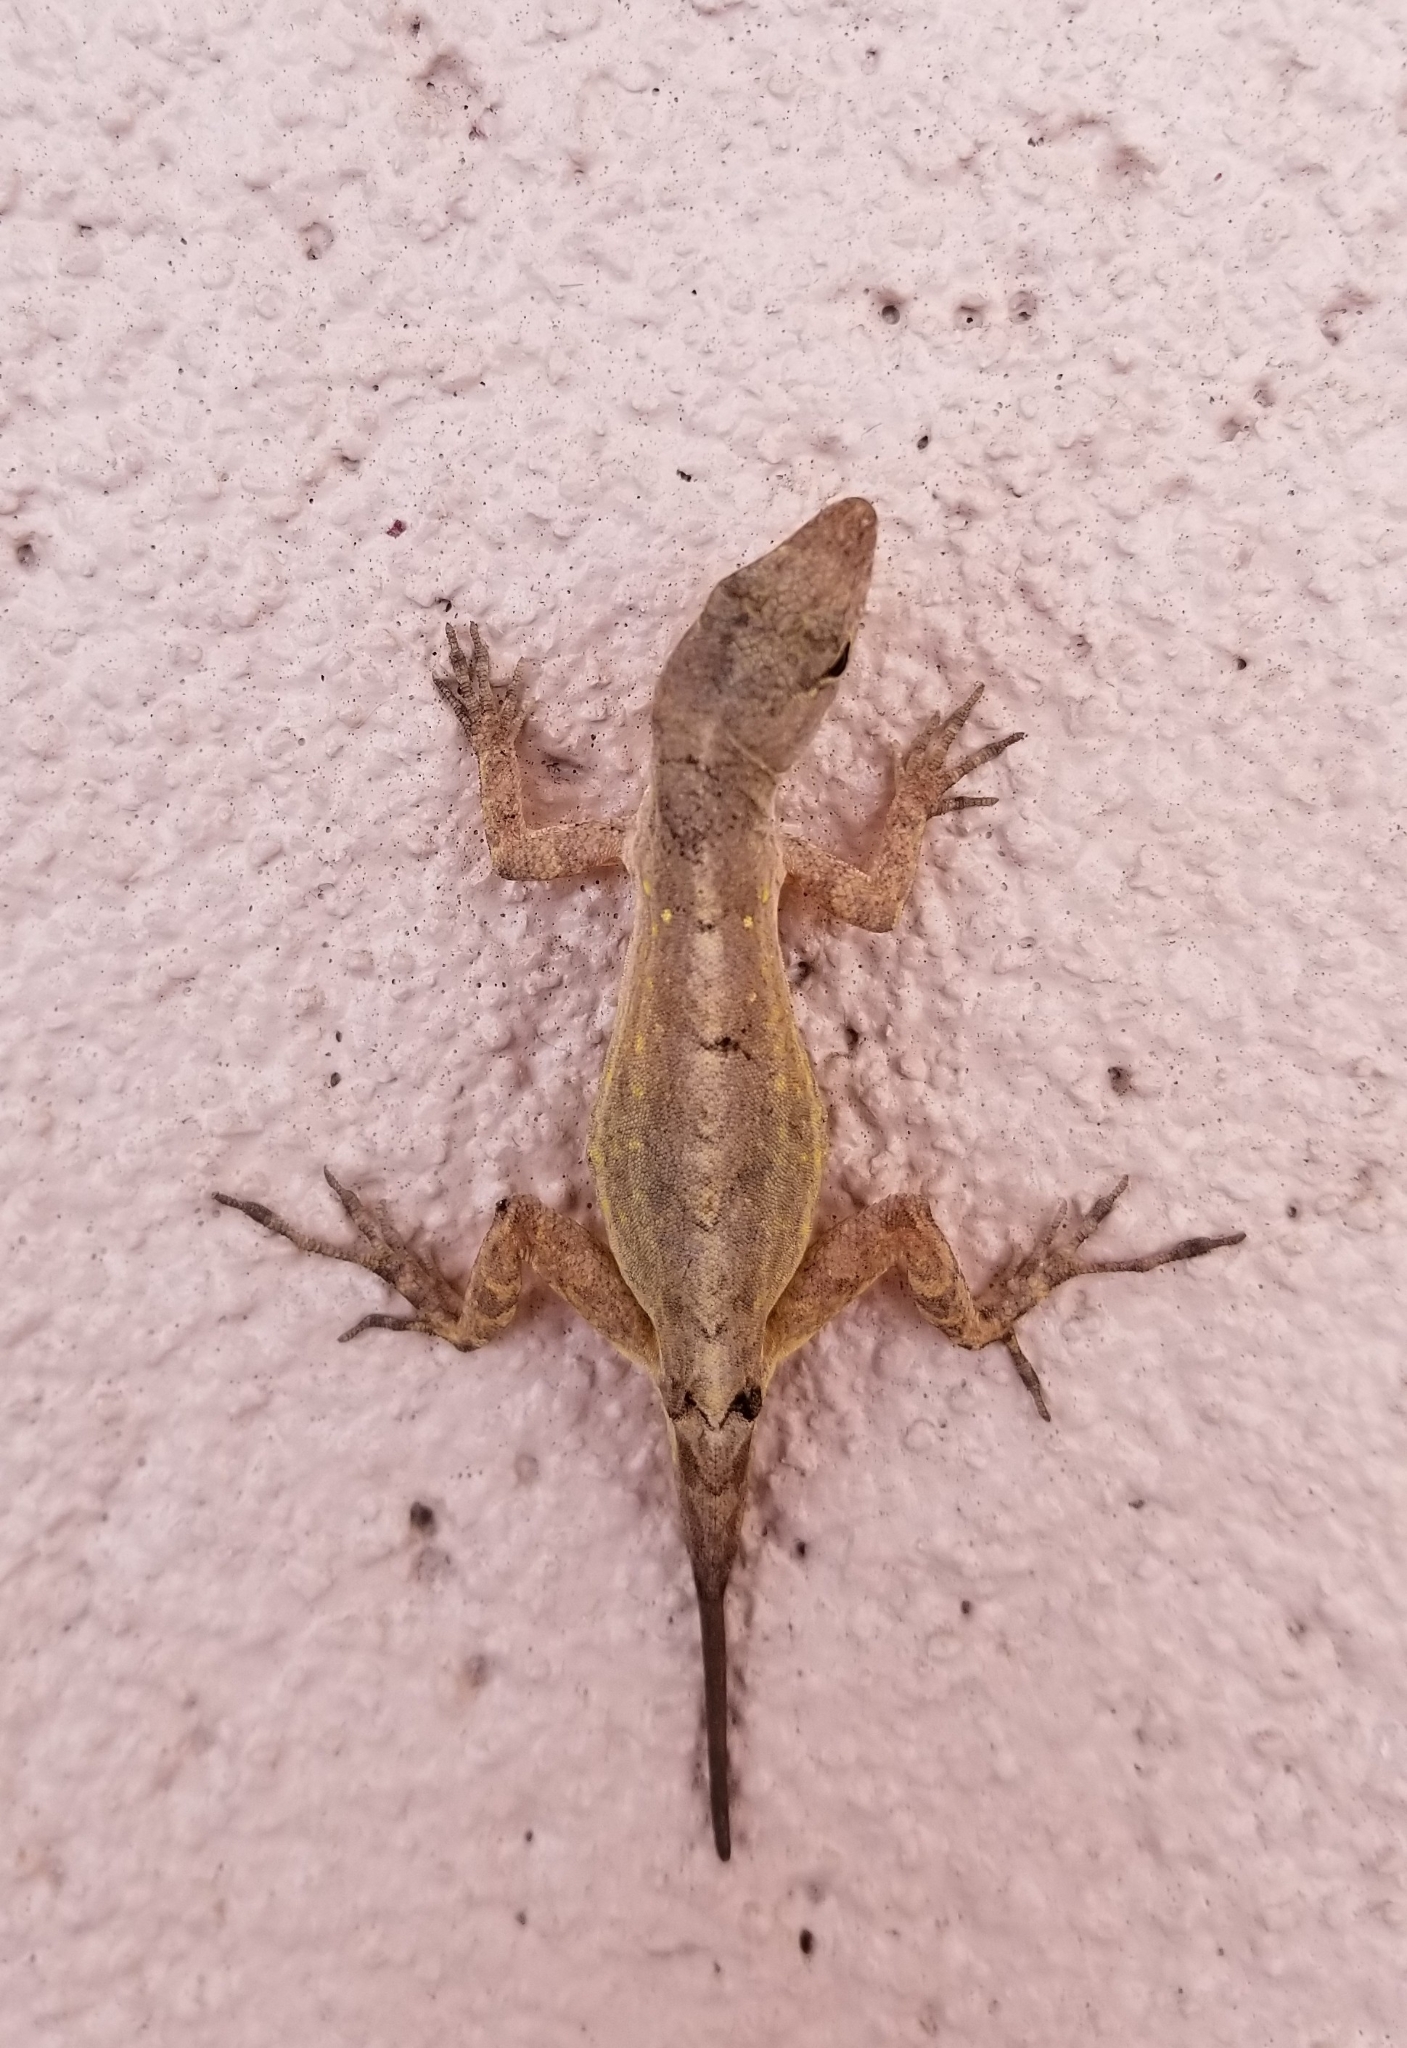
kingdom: Animalia
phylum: Chordata
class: Squamata
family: Dactyloidae
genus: Anolis
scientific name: Anolis sagrei
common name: Brown anole
